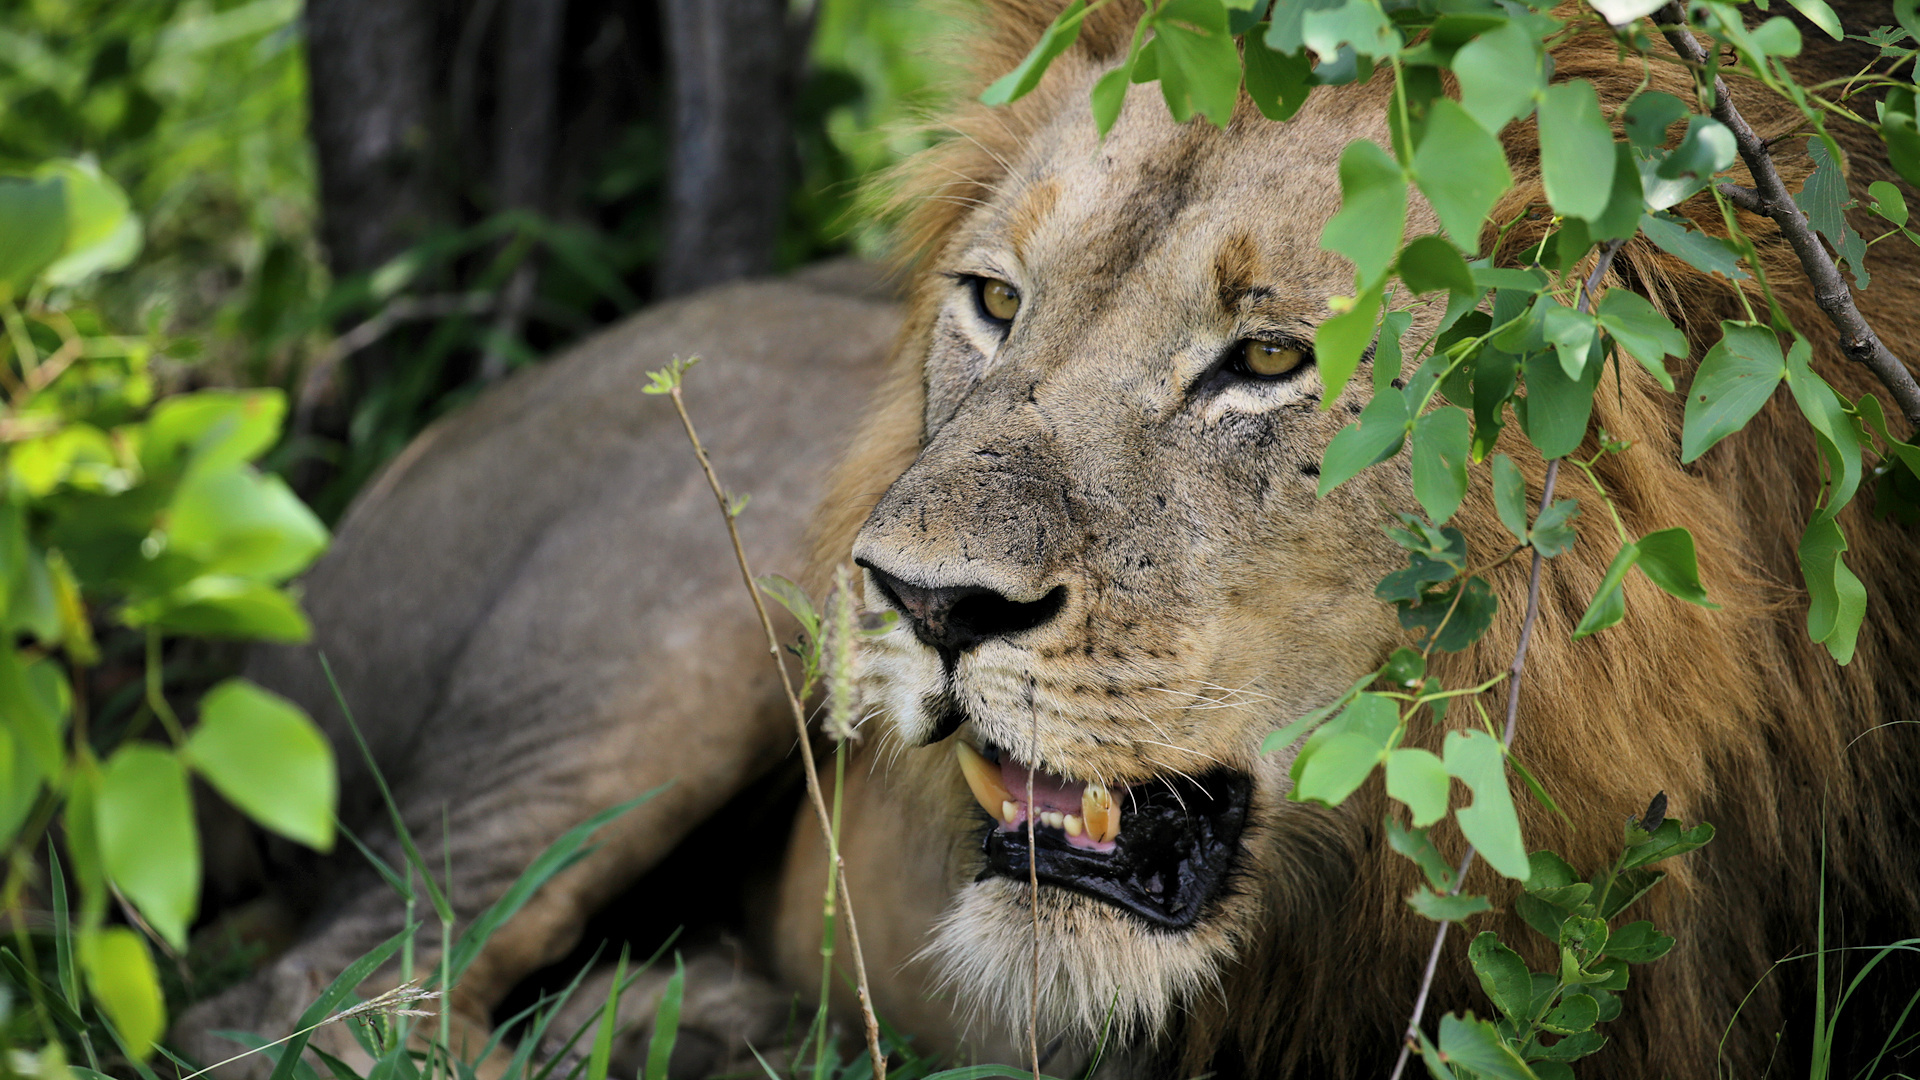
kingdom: Animalia
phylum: Chordata
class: Mammalia
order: Carnivora
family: Felidae
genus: Panthera
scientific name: Panthera leo
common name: Lion
